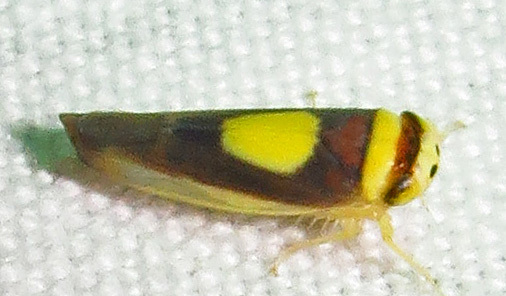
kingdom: Animalia
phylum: Arthropoda
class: Insecta
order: Hemiptera
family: Cicadellidae
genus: Colladonus
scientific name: Colladonus clitellarius
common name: The saddleback leafhopper
